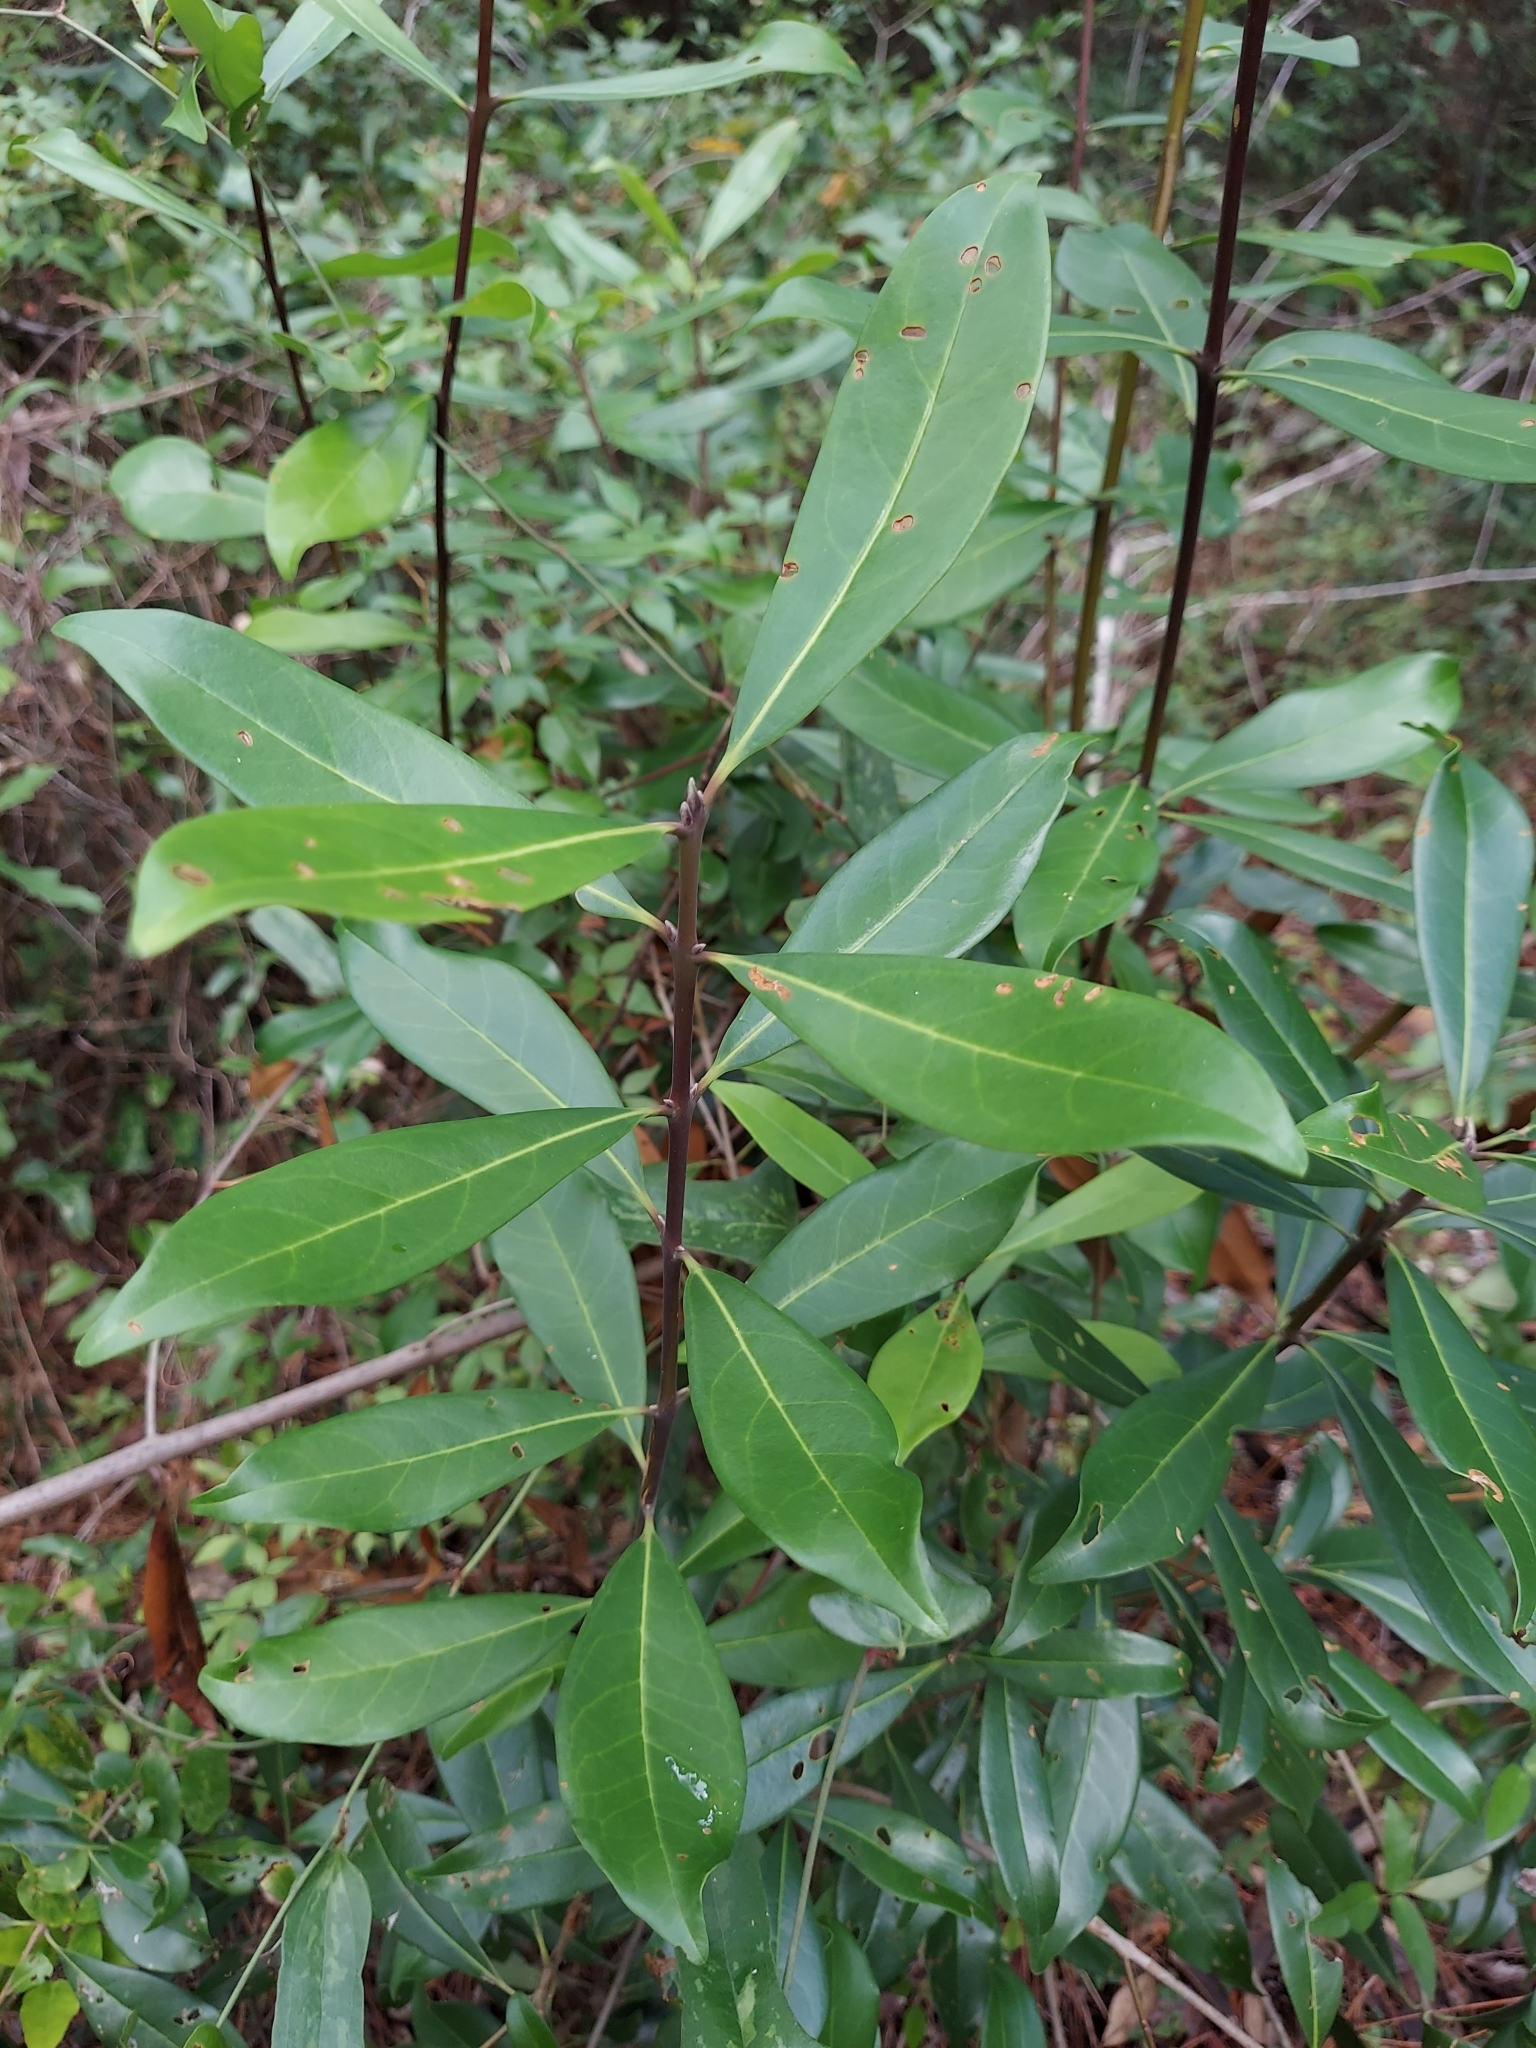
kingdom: Plantae
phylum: Tracheophyta
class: Magnoliopsida
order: Lamiales
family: Oleaceae
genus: Cartrema
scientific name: Cartrema americana
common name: Devilwood
